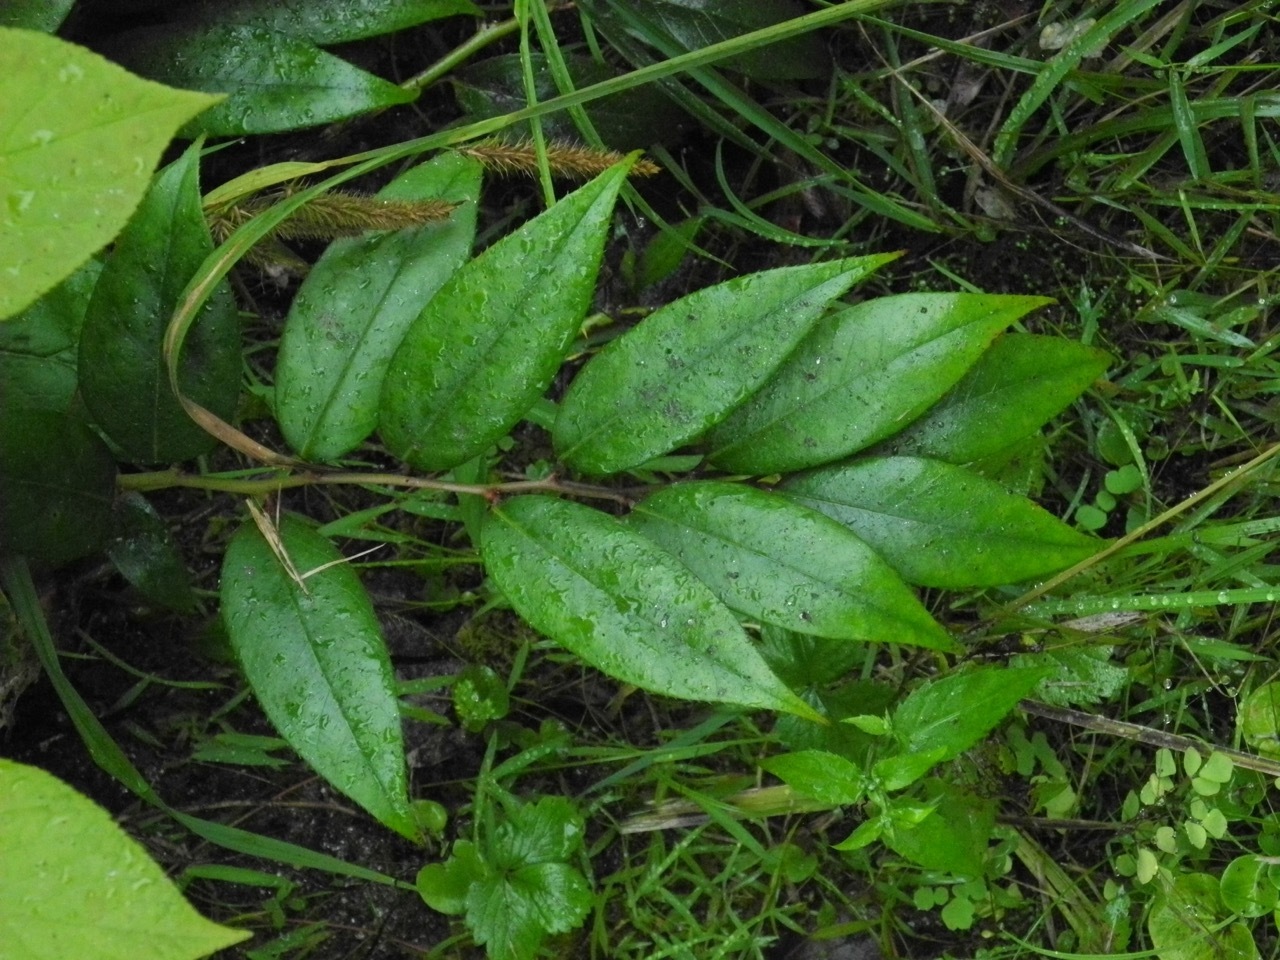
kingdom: Plantae
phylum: Tracheophyta
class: Magnoliopsida
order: Ericales
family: Ericaceae
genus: Leucothoe
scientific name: Leucothoe fontanesiana
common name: Fetterbush
